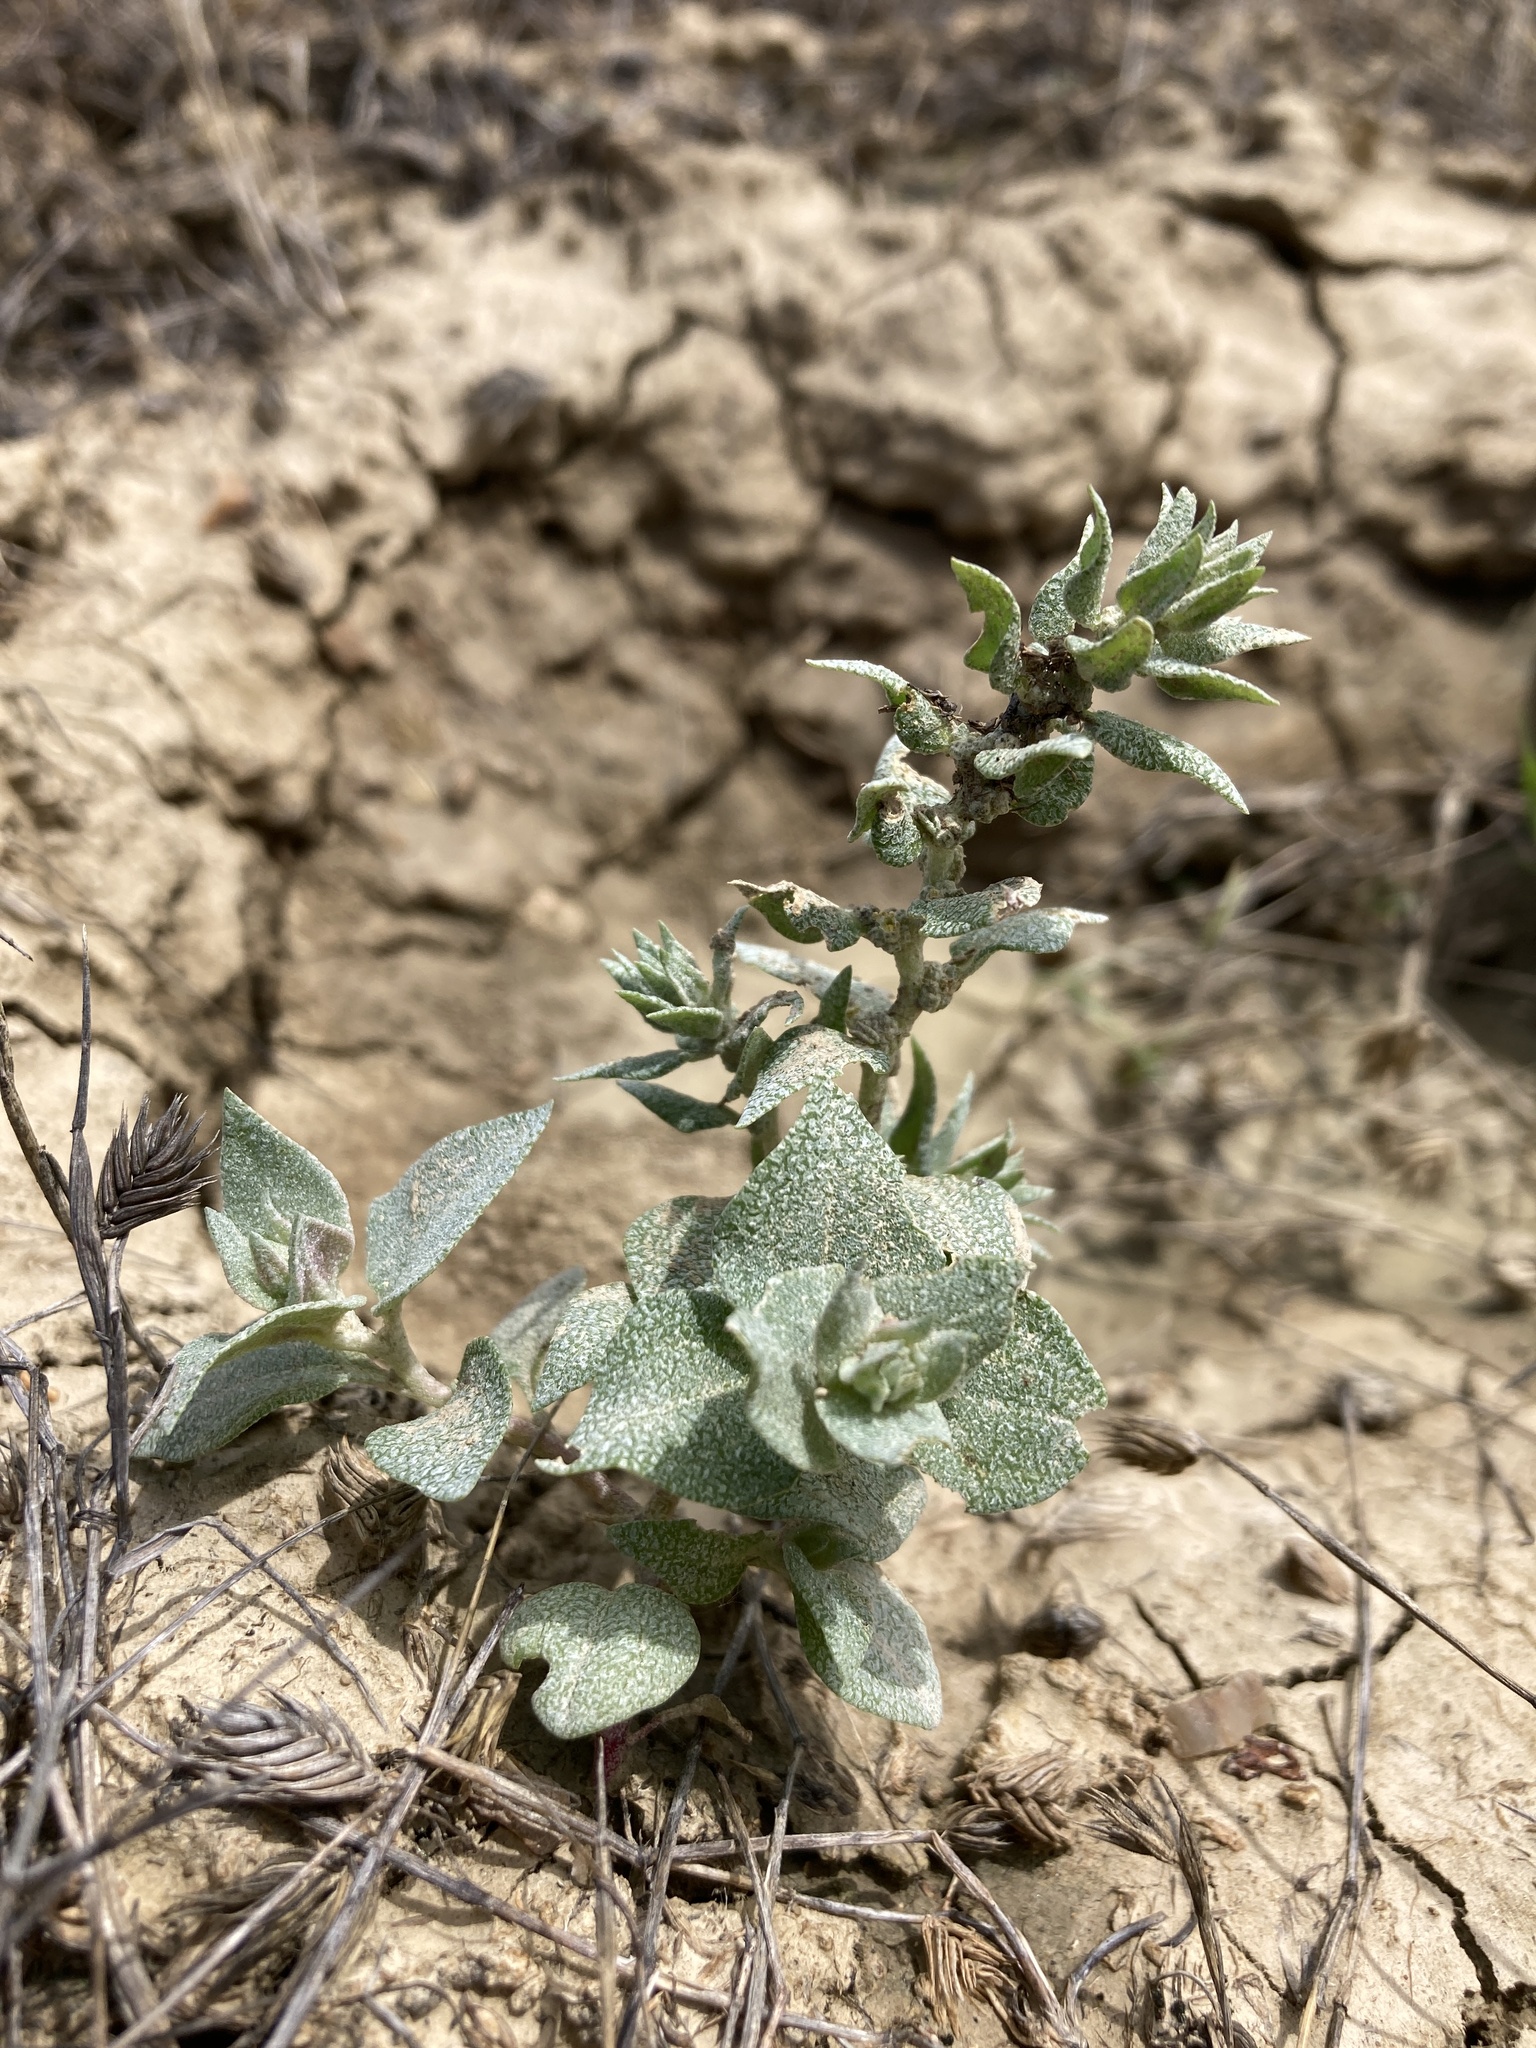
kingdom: Plantae
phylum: Tracheophyta
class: Magnoliopsida
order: Caryophyllales
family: Amaranthaceae
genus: Atriplex
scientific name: Atriplex argentea
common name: Silverscale
